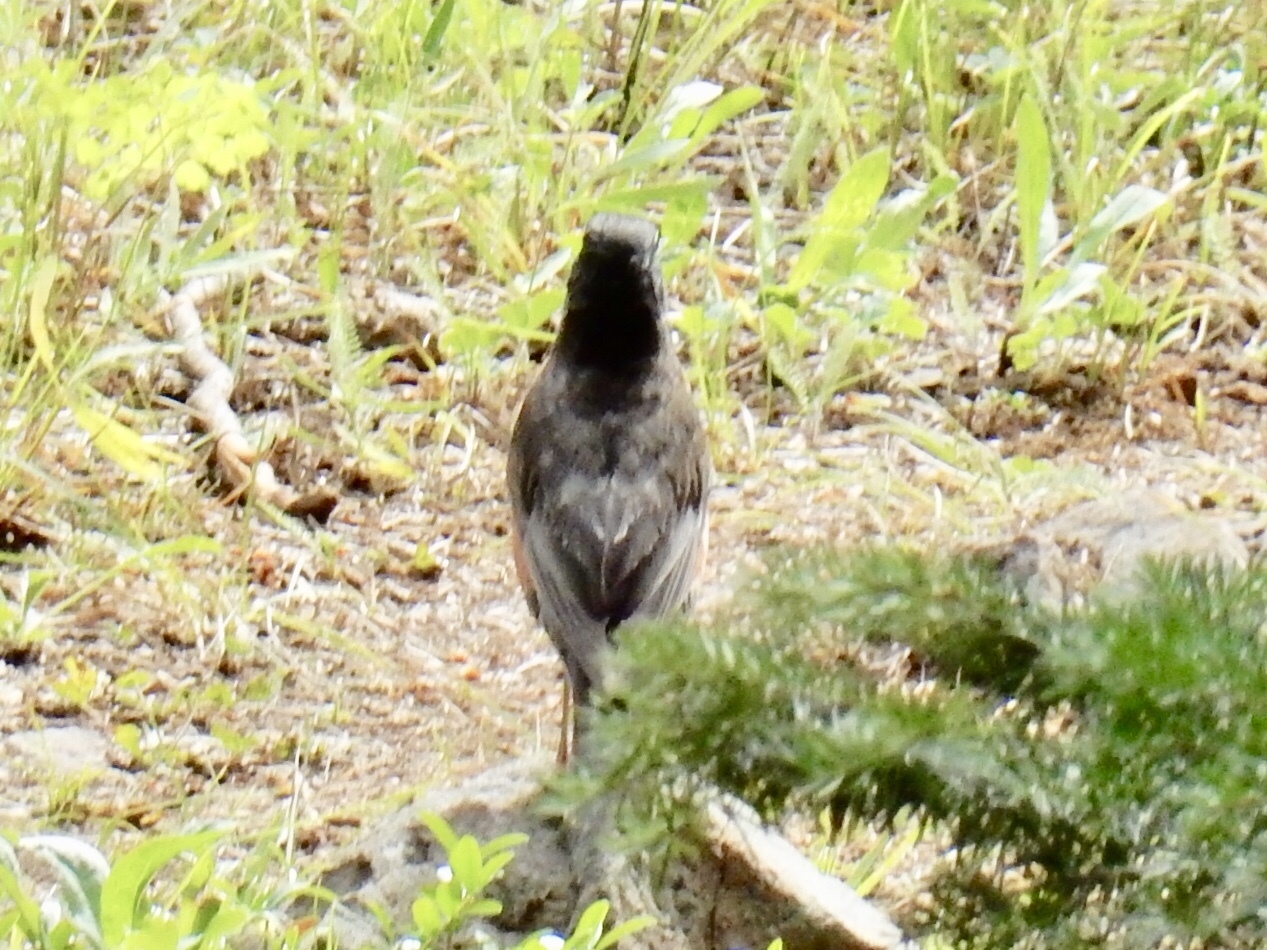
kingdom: Animalia
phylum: Chordata
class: Aves
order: Passeriformes
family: Turdidae
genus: Turdus
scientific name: Turdus migratorius
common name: American robin
